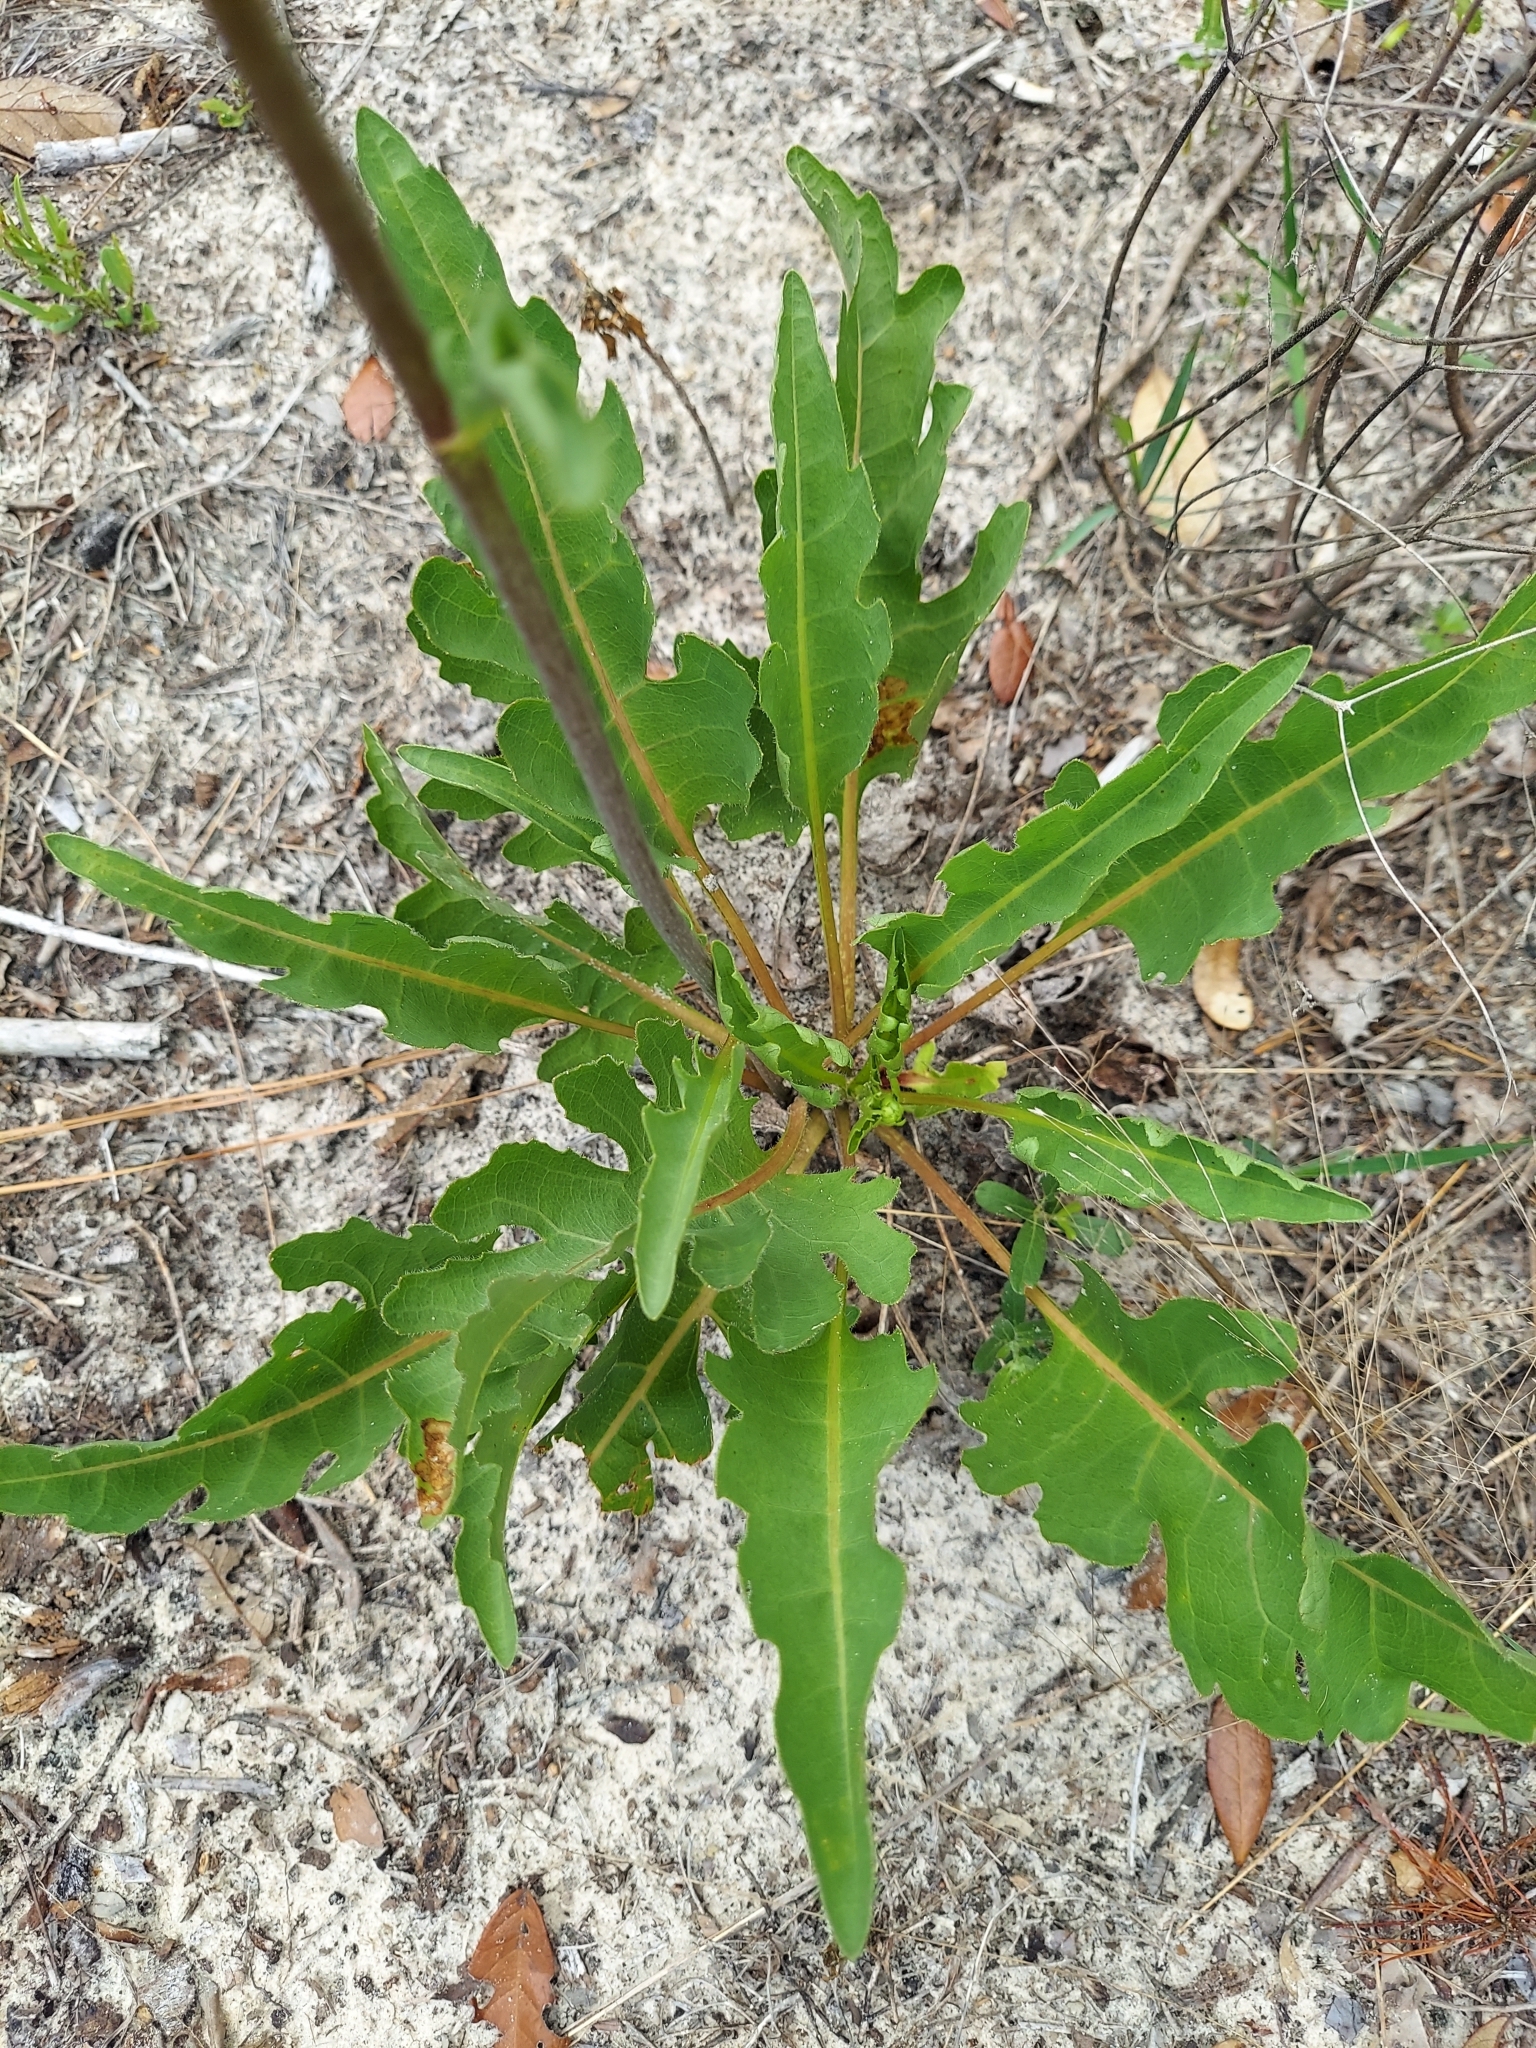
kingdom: Plantae
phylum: Tracheophyta
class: Magnoliopsida
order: Asterales
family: Asteraceae
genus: Silphium
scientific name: Silphium compositum
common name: Lesser basal-leaf rosinweed
